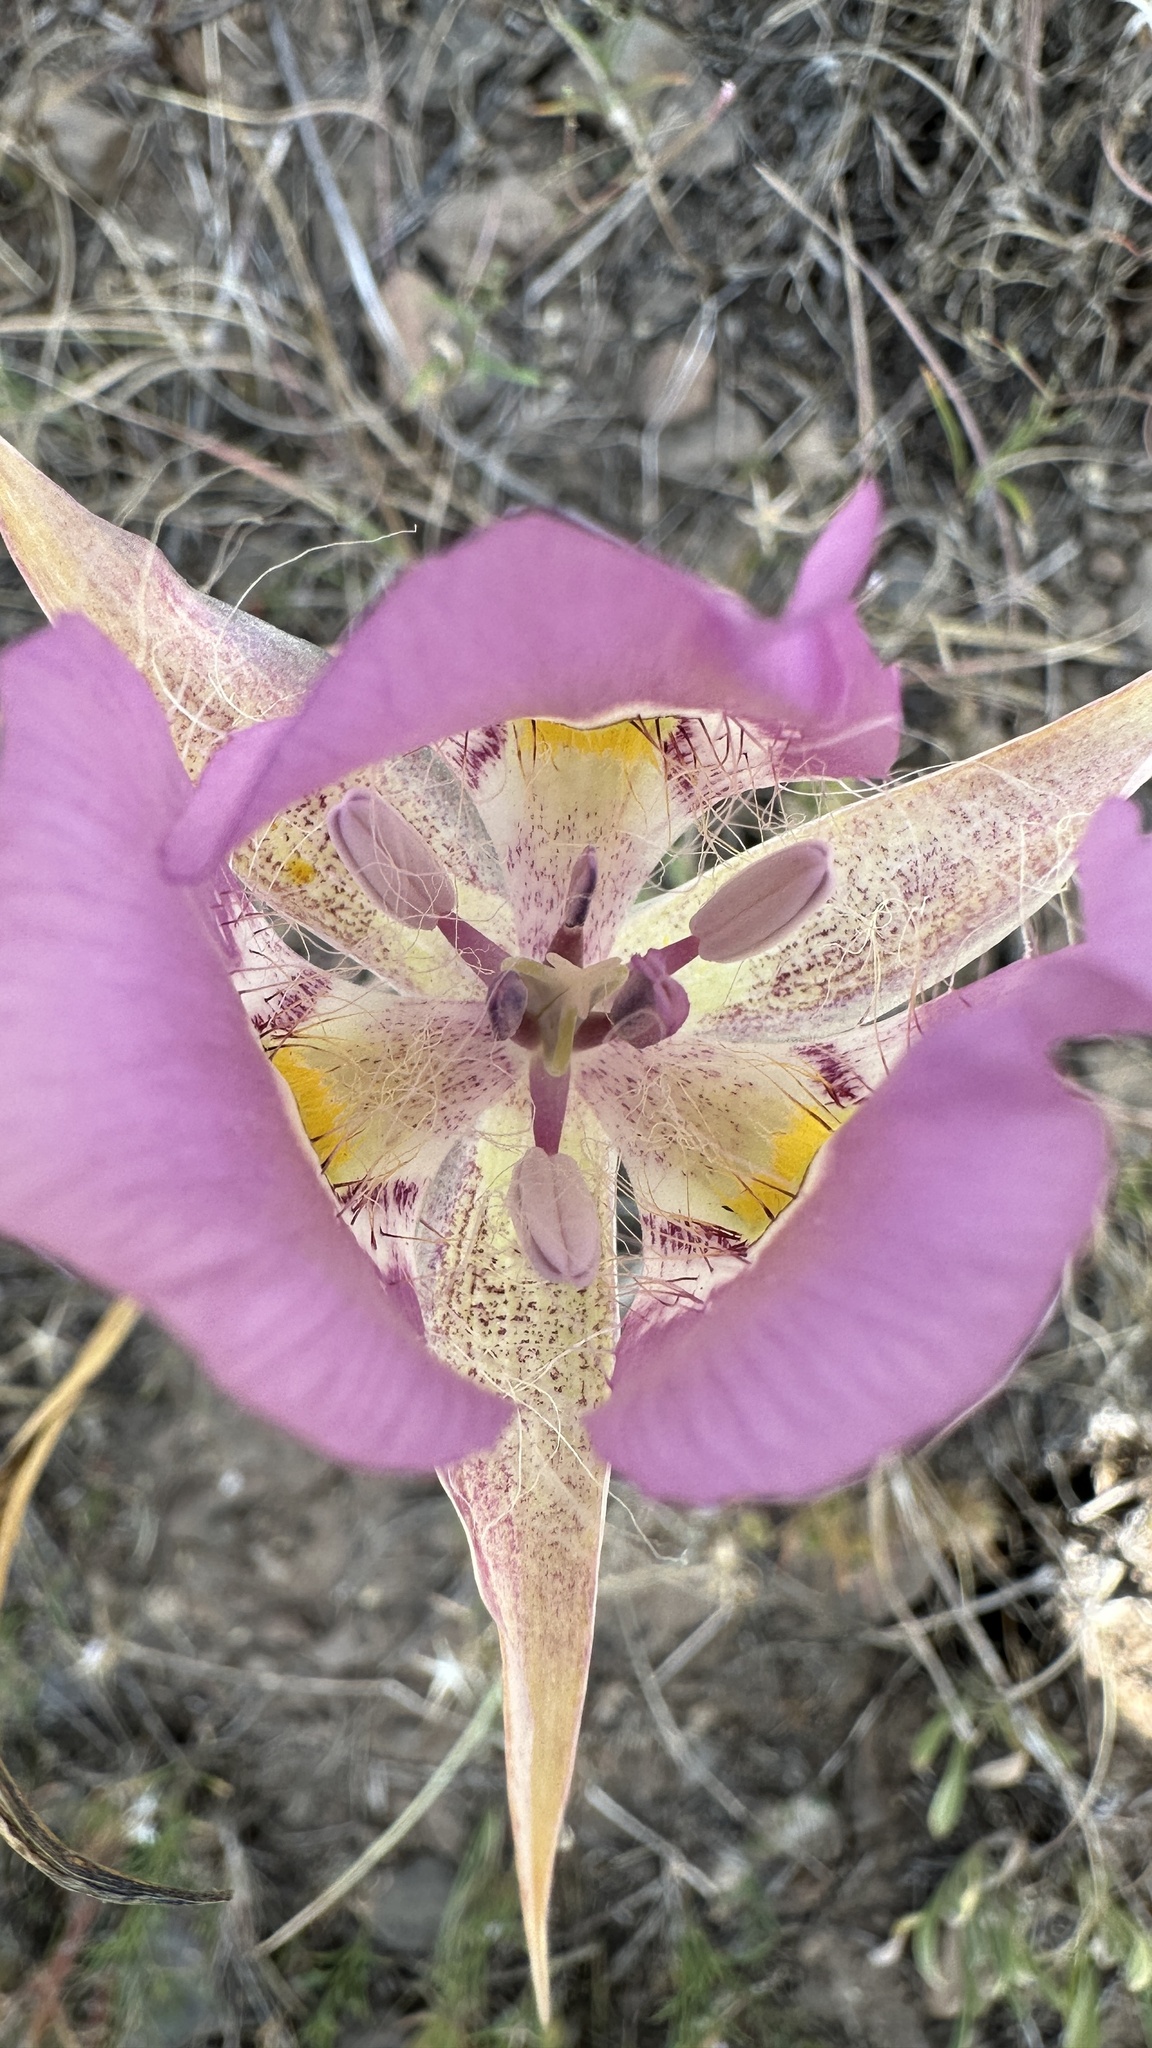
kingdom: Plantae
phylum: Tracheophyta
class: Liliopsida
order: Liliales
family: Liliaceae
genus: Calochortus
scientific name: Calochortus nitidus
